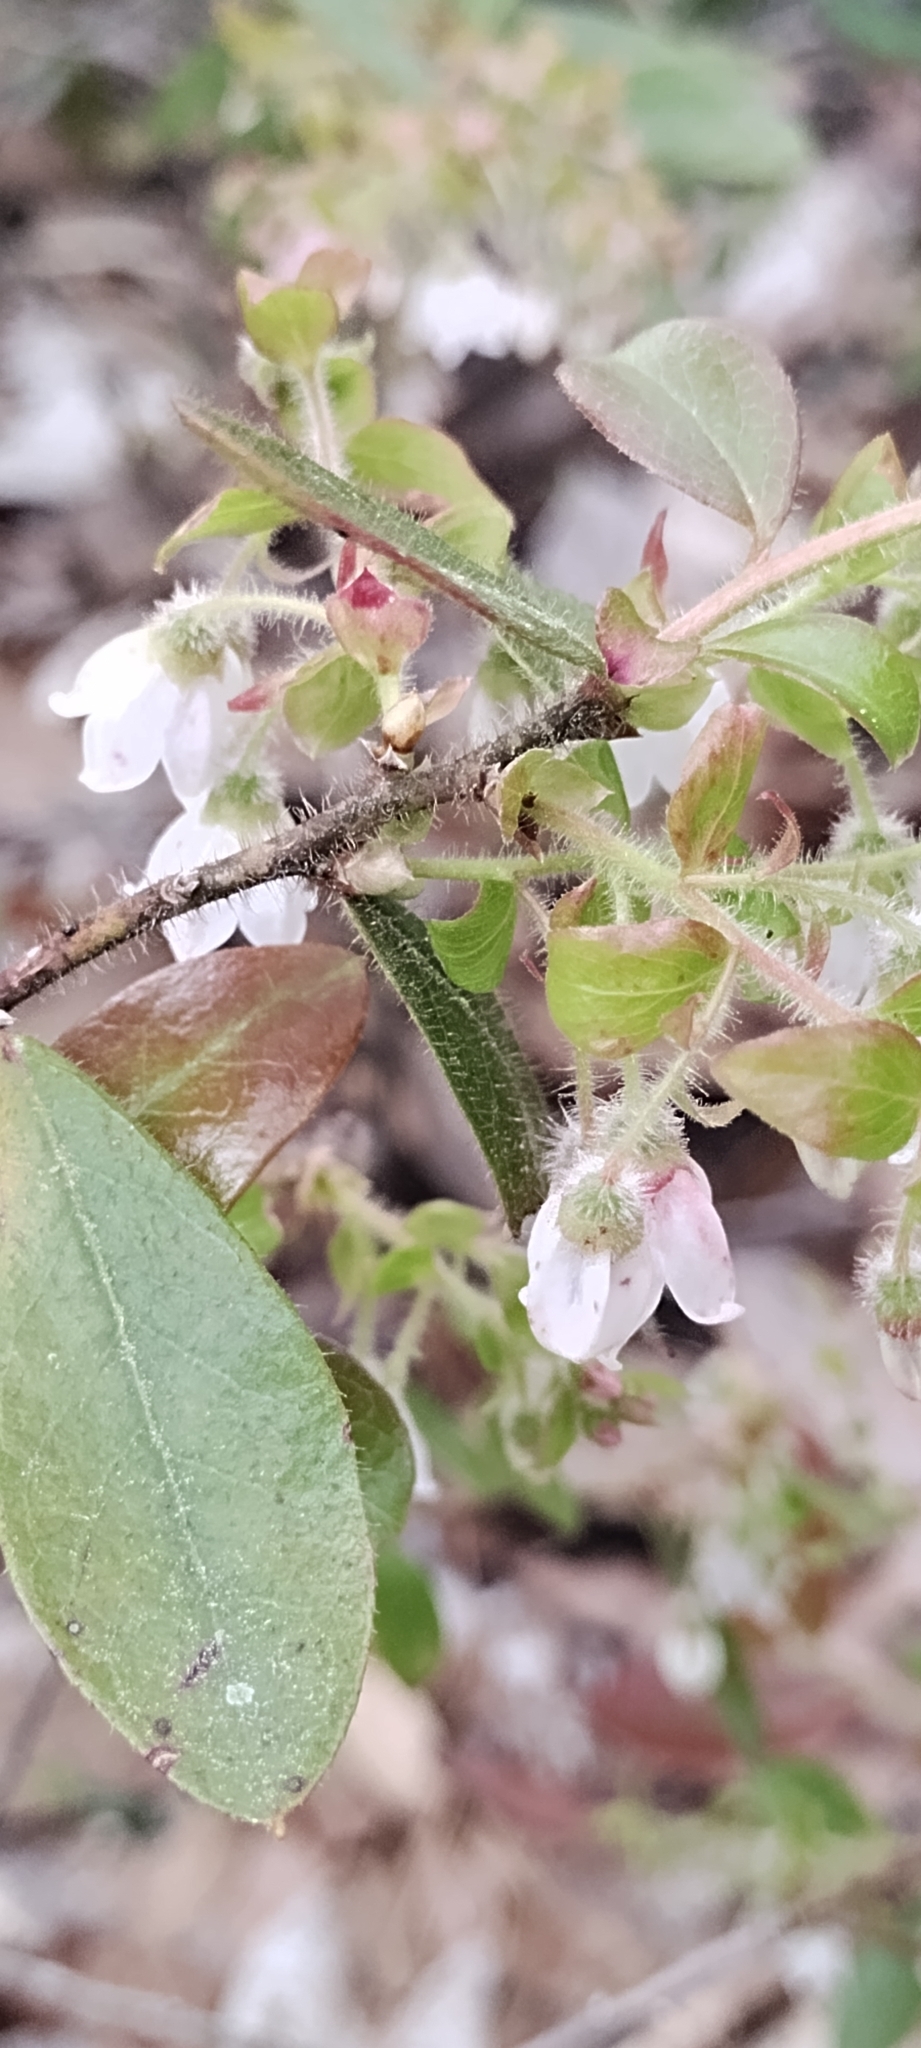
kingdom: Plantae
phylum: Tracheophyta
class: Magnoliopsida
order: Ericales
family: Ericaceae
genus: Gaylussacia
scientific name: Gaylussacia mosieri
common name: Hirsute huckleberry
